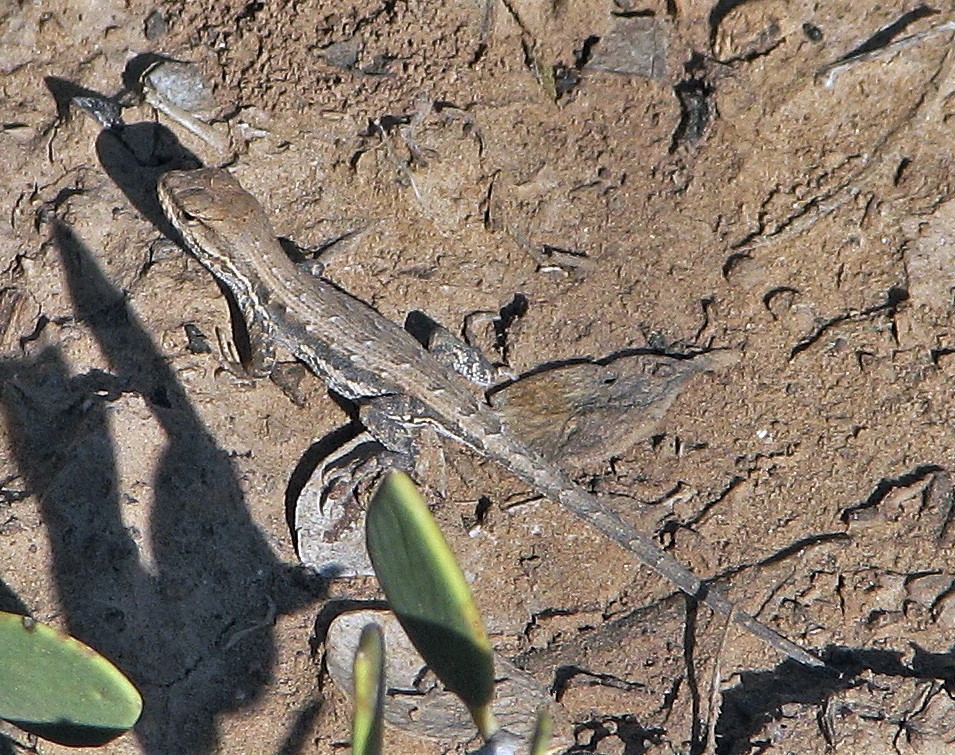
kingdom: Animalia
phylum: Chordata
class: Squamata
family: Liolaemidae
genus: Liolaemus
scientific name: Liolaemus chacoensis
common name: Chaco tree iguana
